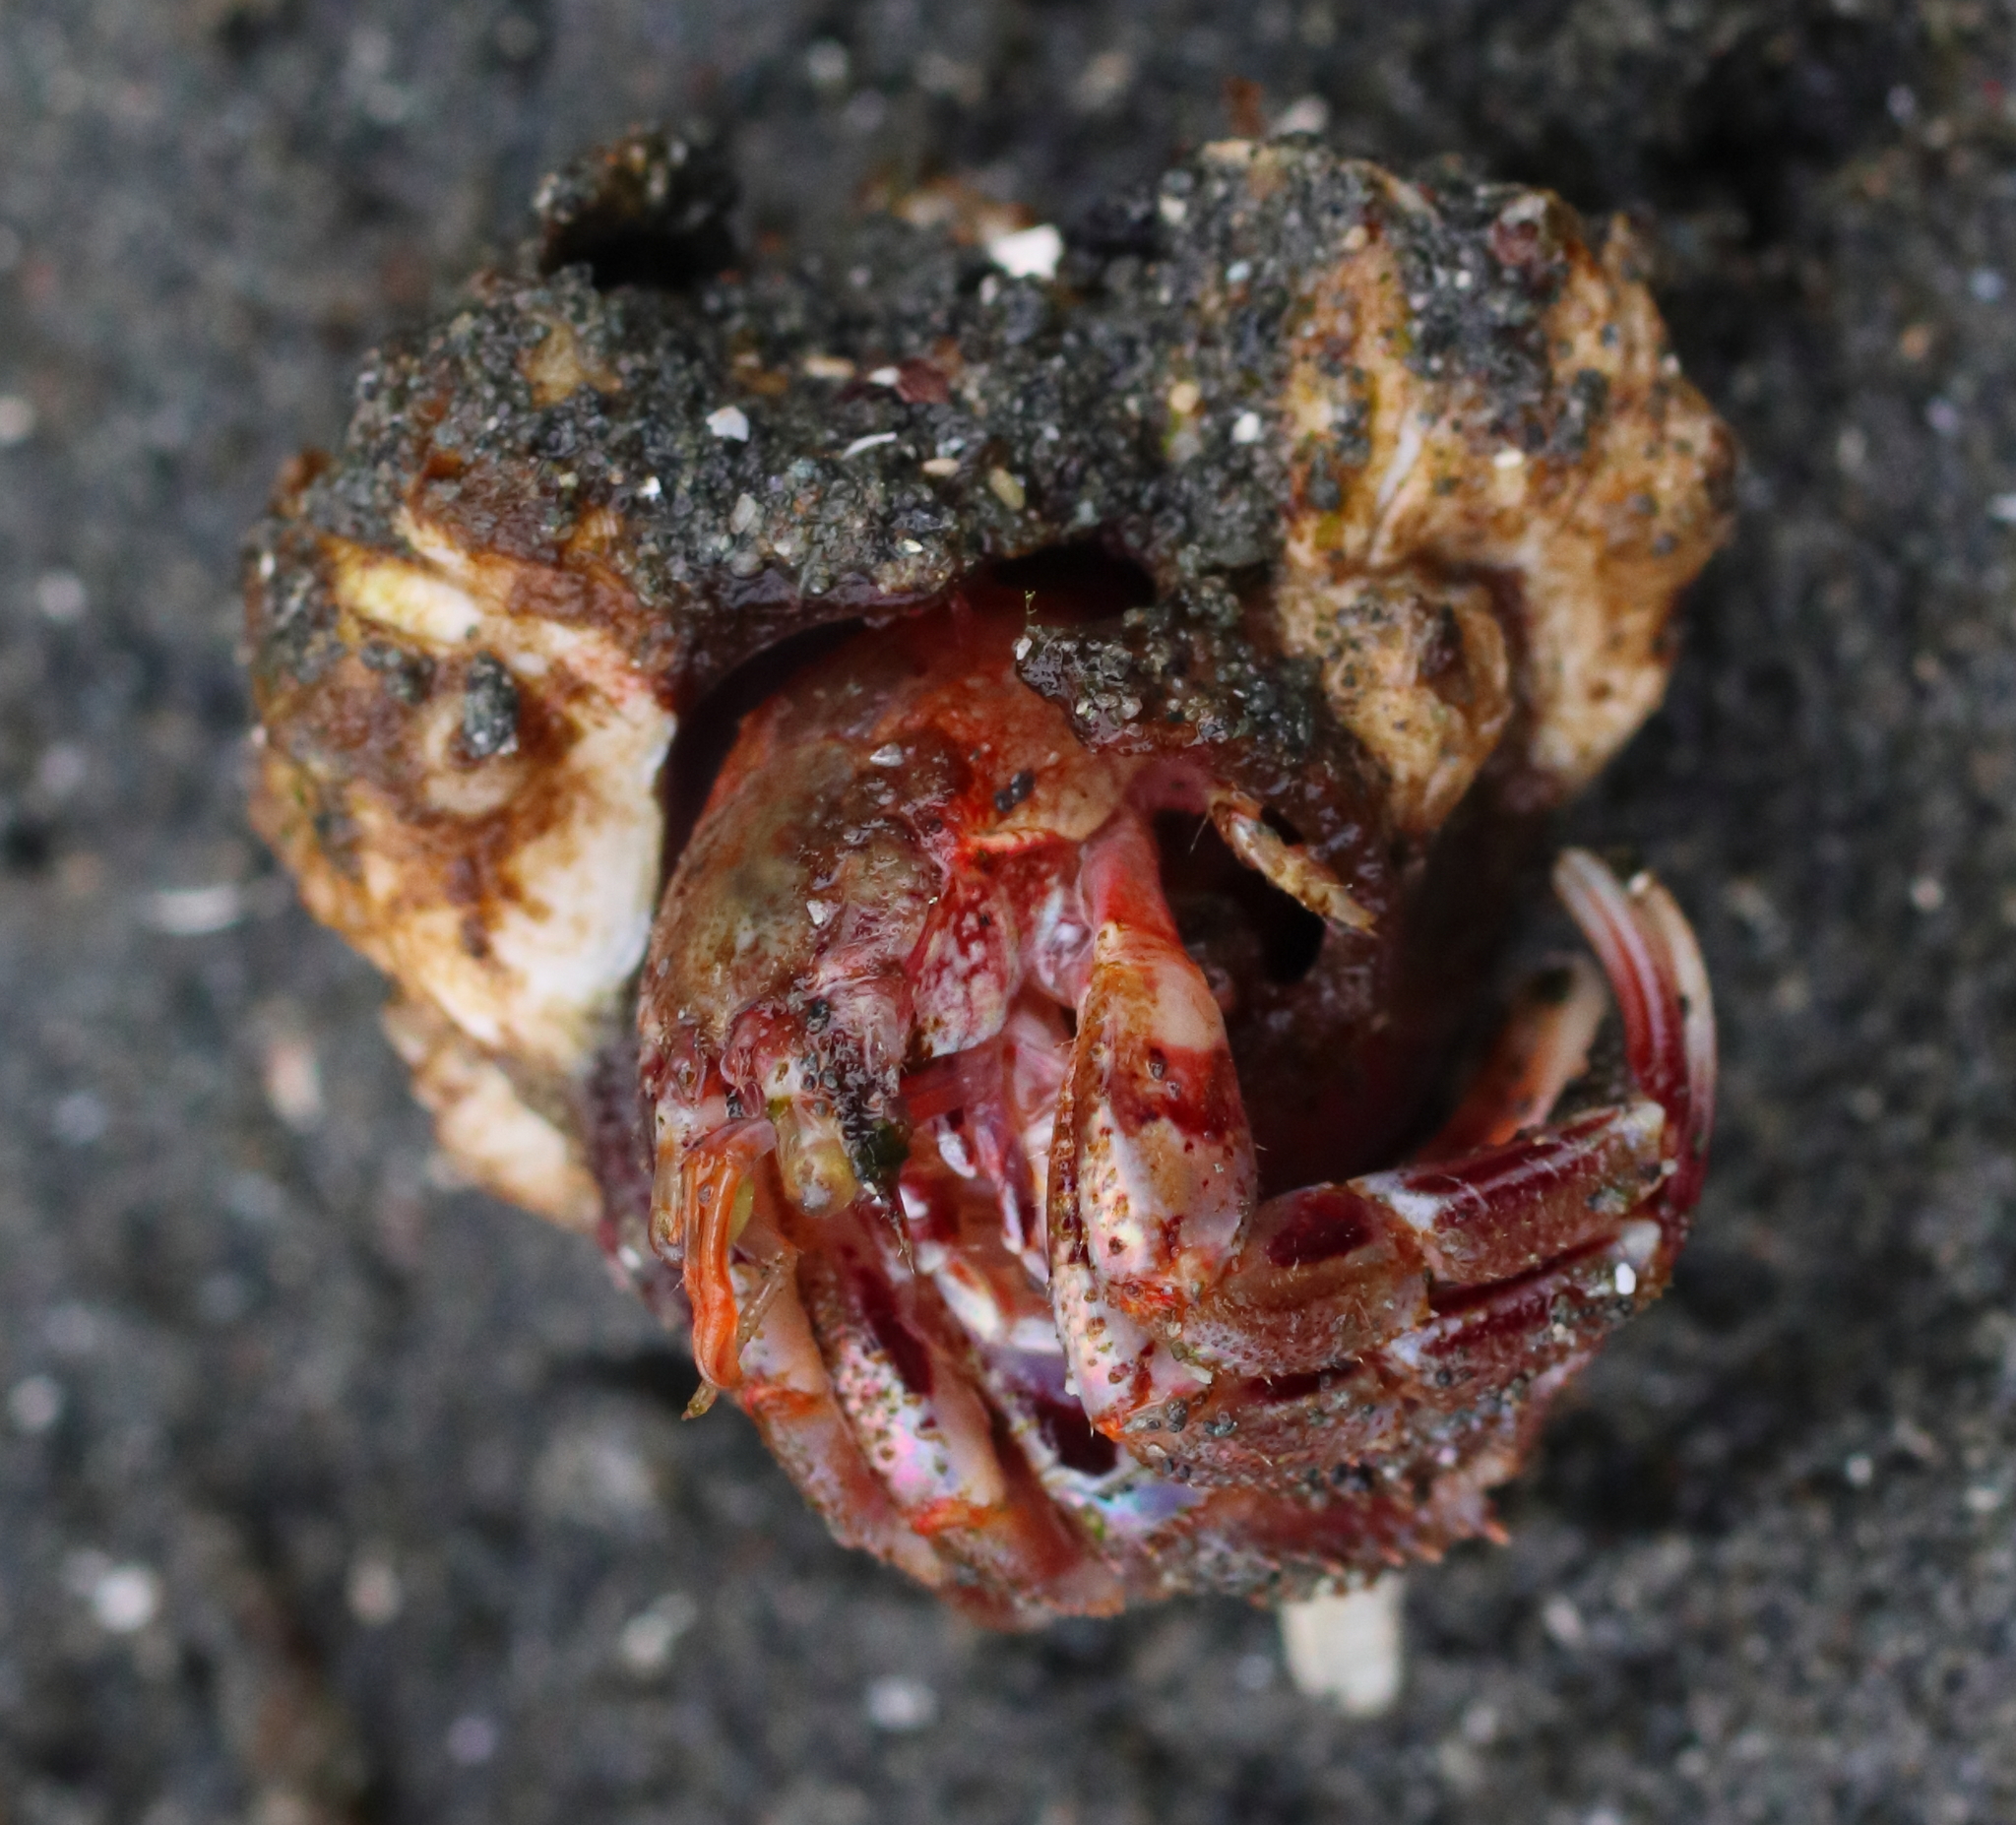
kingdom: Animalia
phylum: Arthropoda
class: Malacostraca
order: Decapoda
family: Paguridae
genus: Pagurus
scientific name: Pagurus ochotensis
